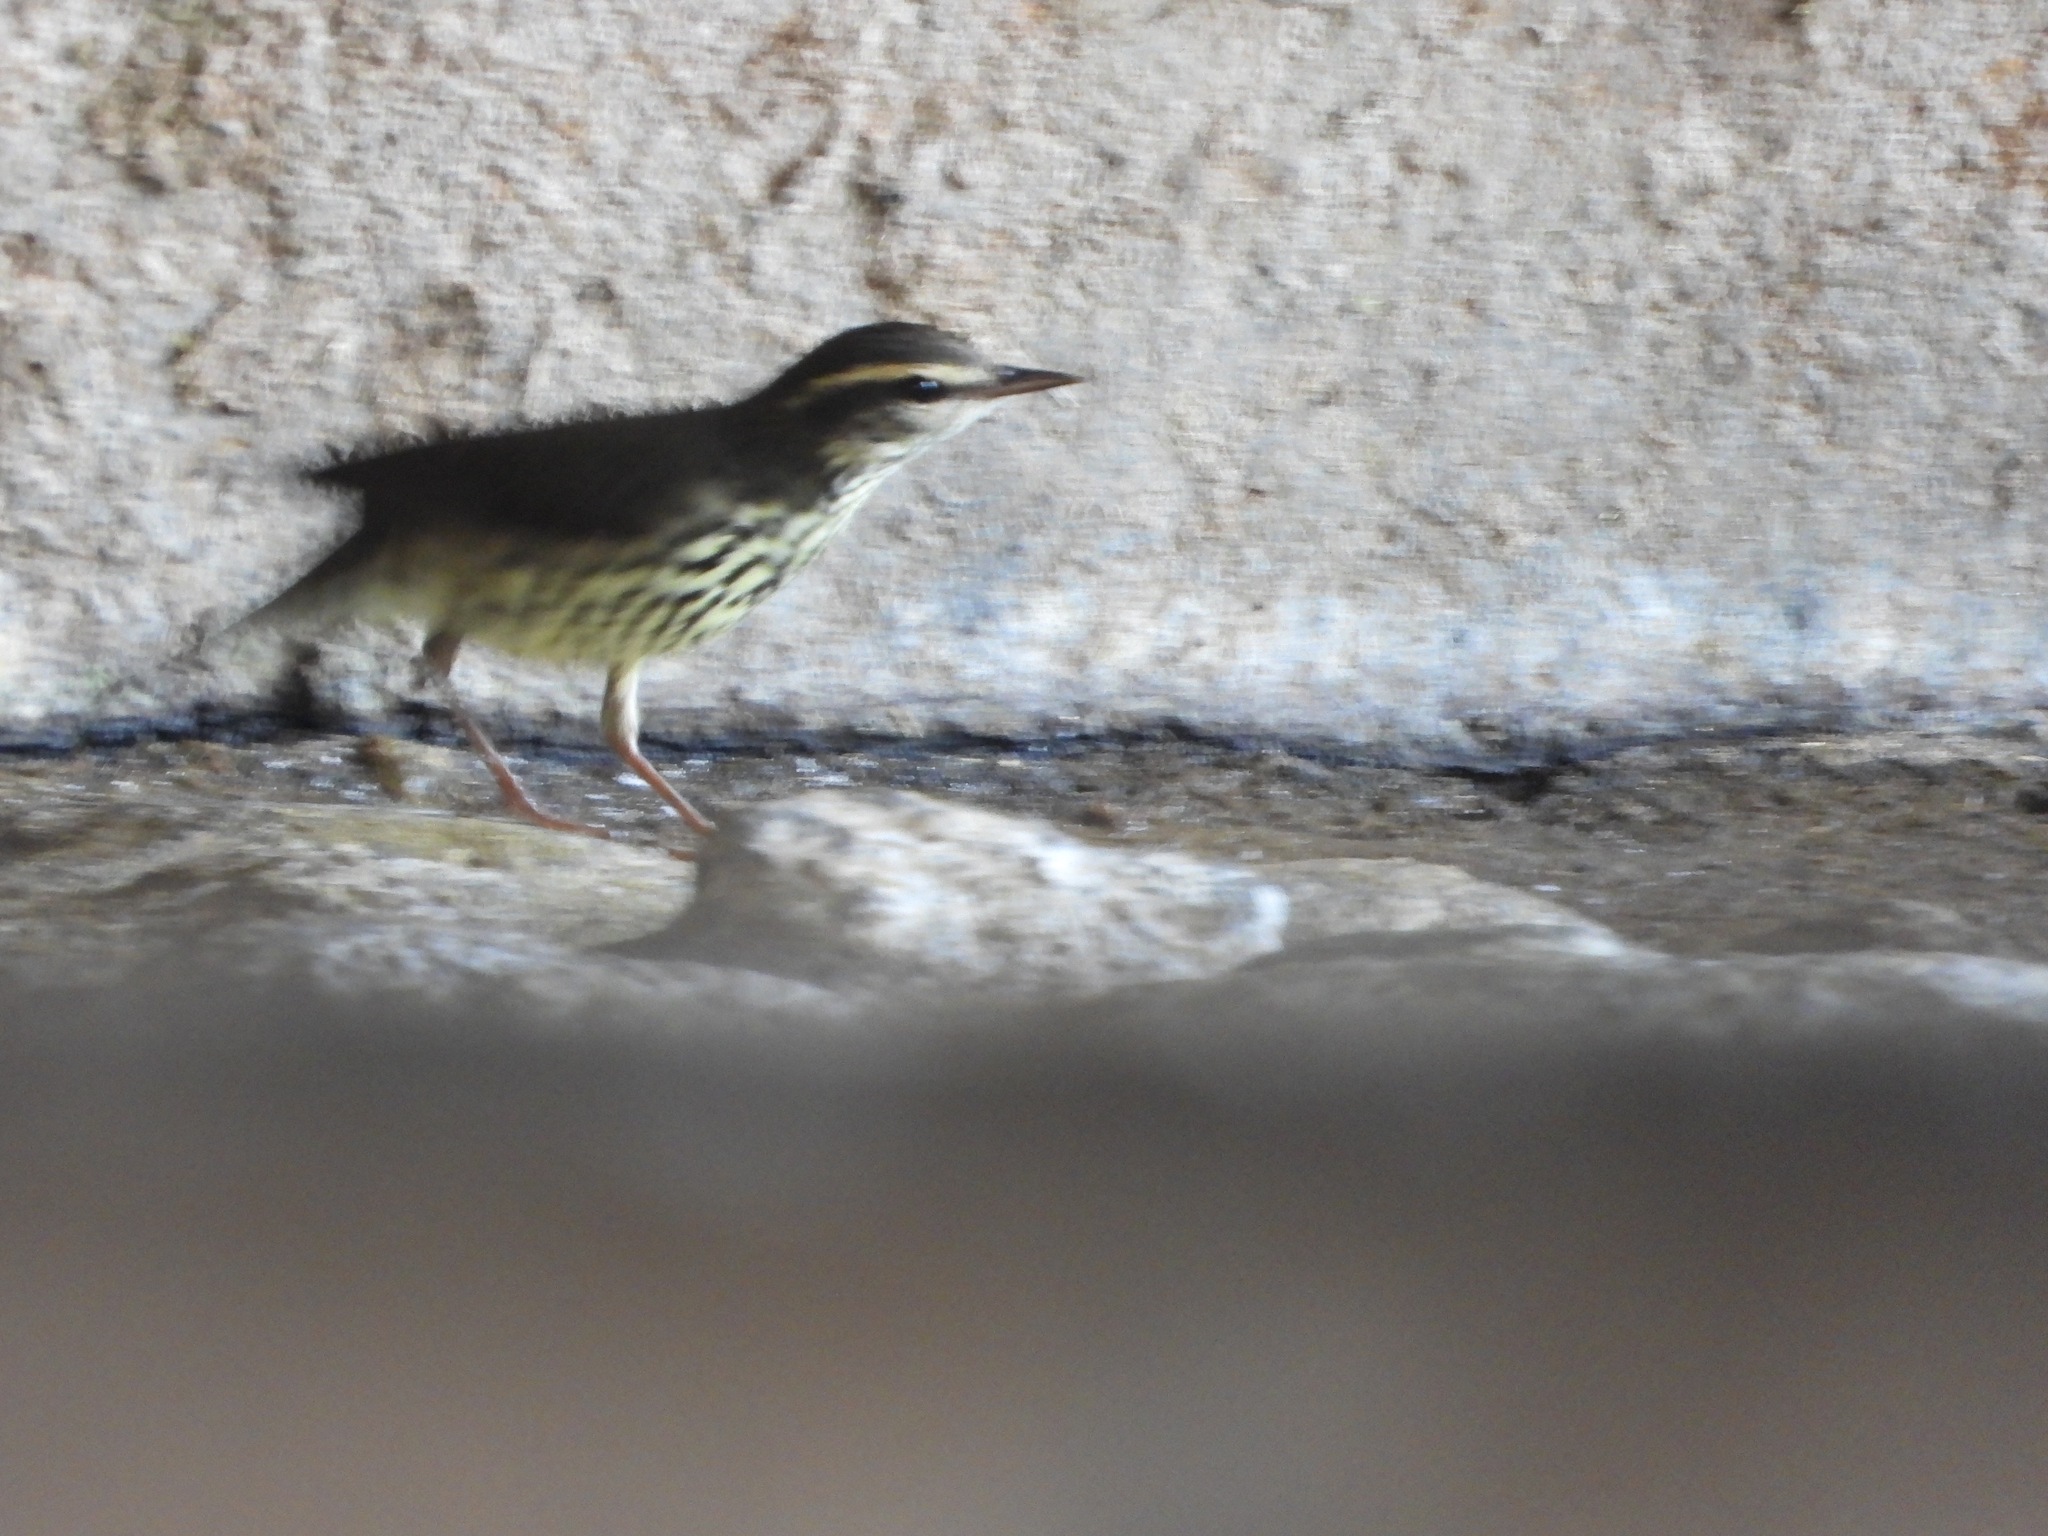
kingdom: Animalia
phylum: Chordata
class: Aves
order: Passeriformes
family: Parulidae
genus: Parkesia
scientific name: Parkesia noveboracensis
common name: Northern waterthrush
